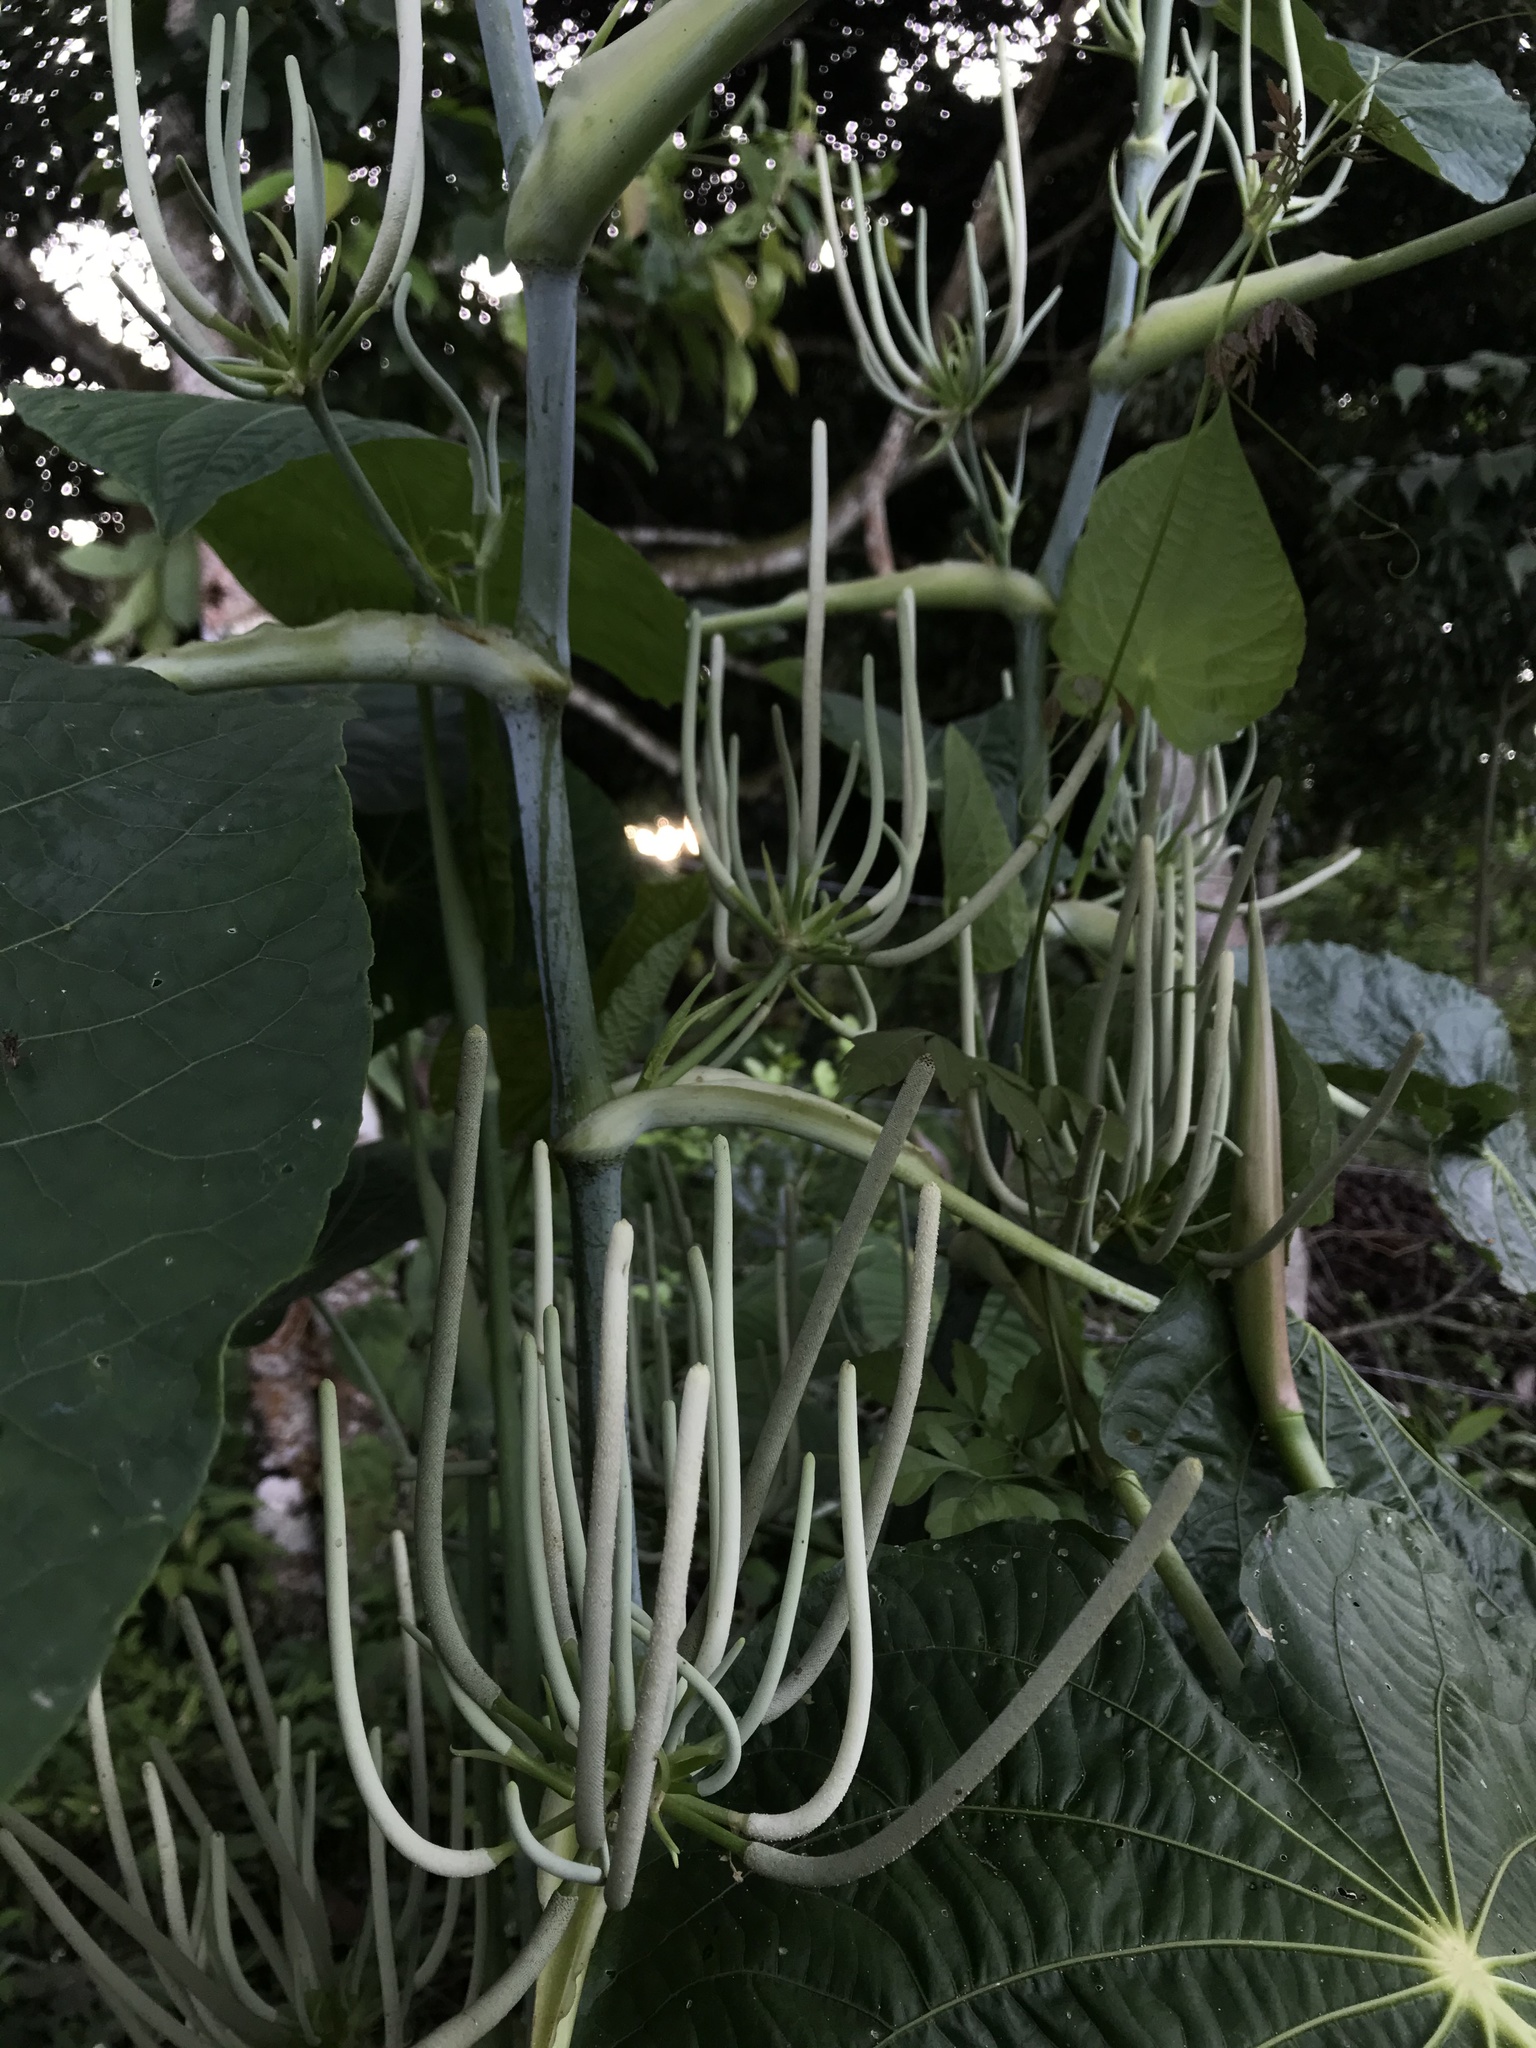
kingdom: Plantae
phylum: Tracheophyta
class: Magnoliopsida
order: Piperales
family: Piperaceae
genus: Piper
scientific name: Piper peltatum
